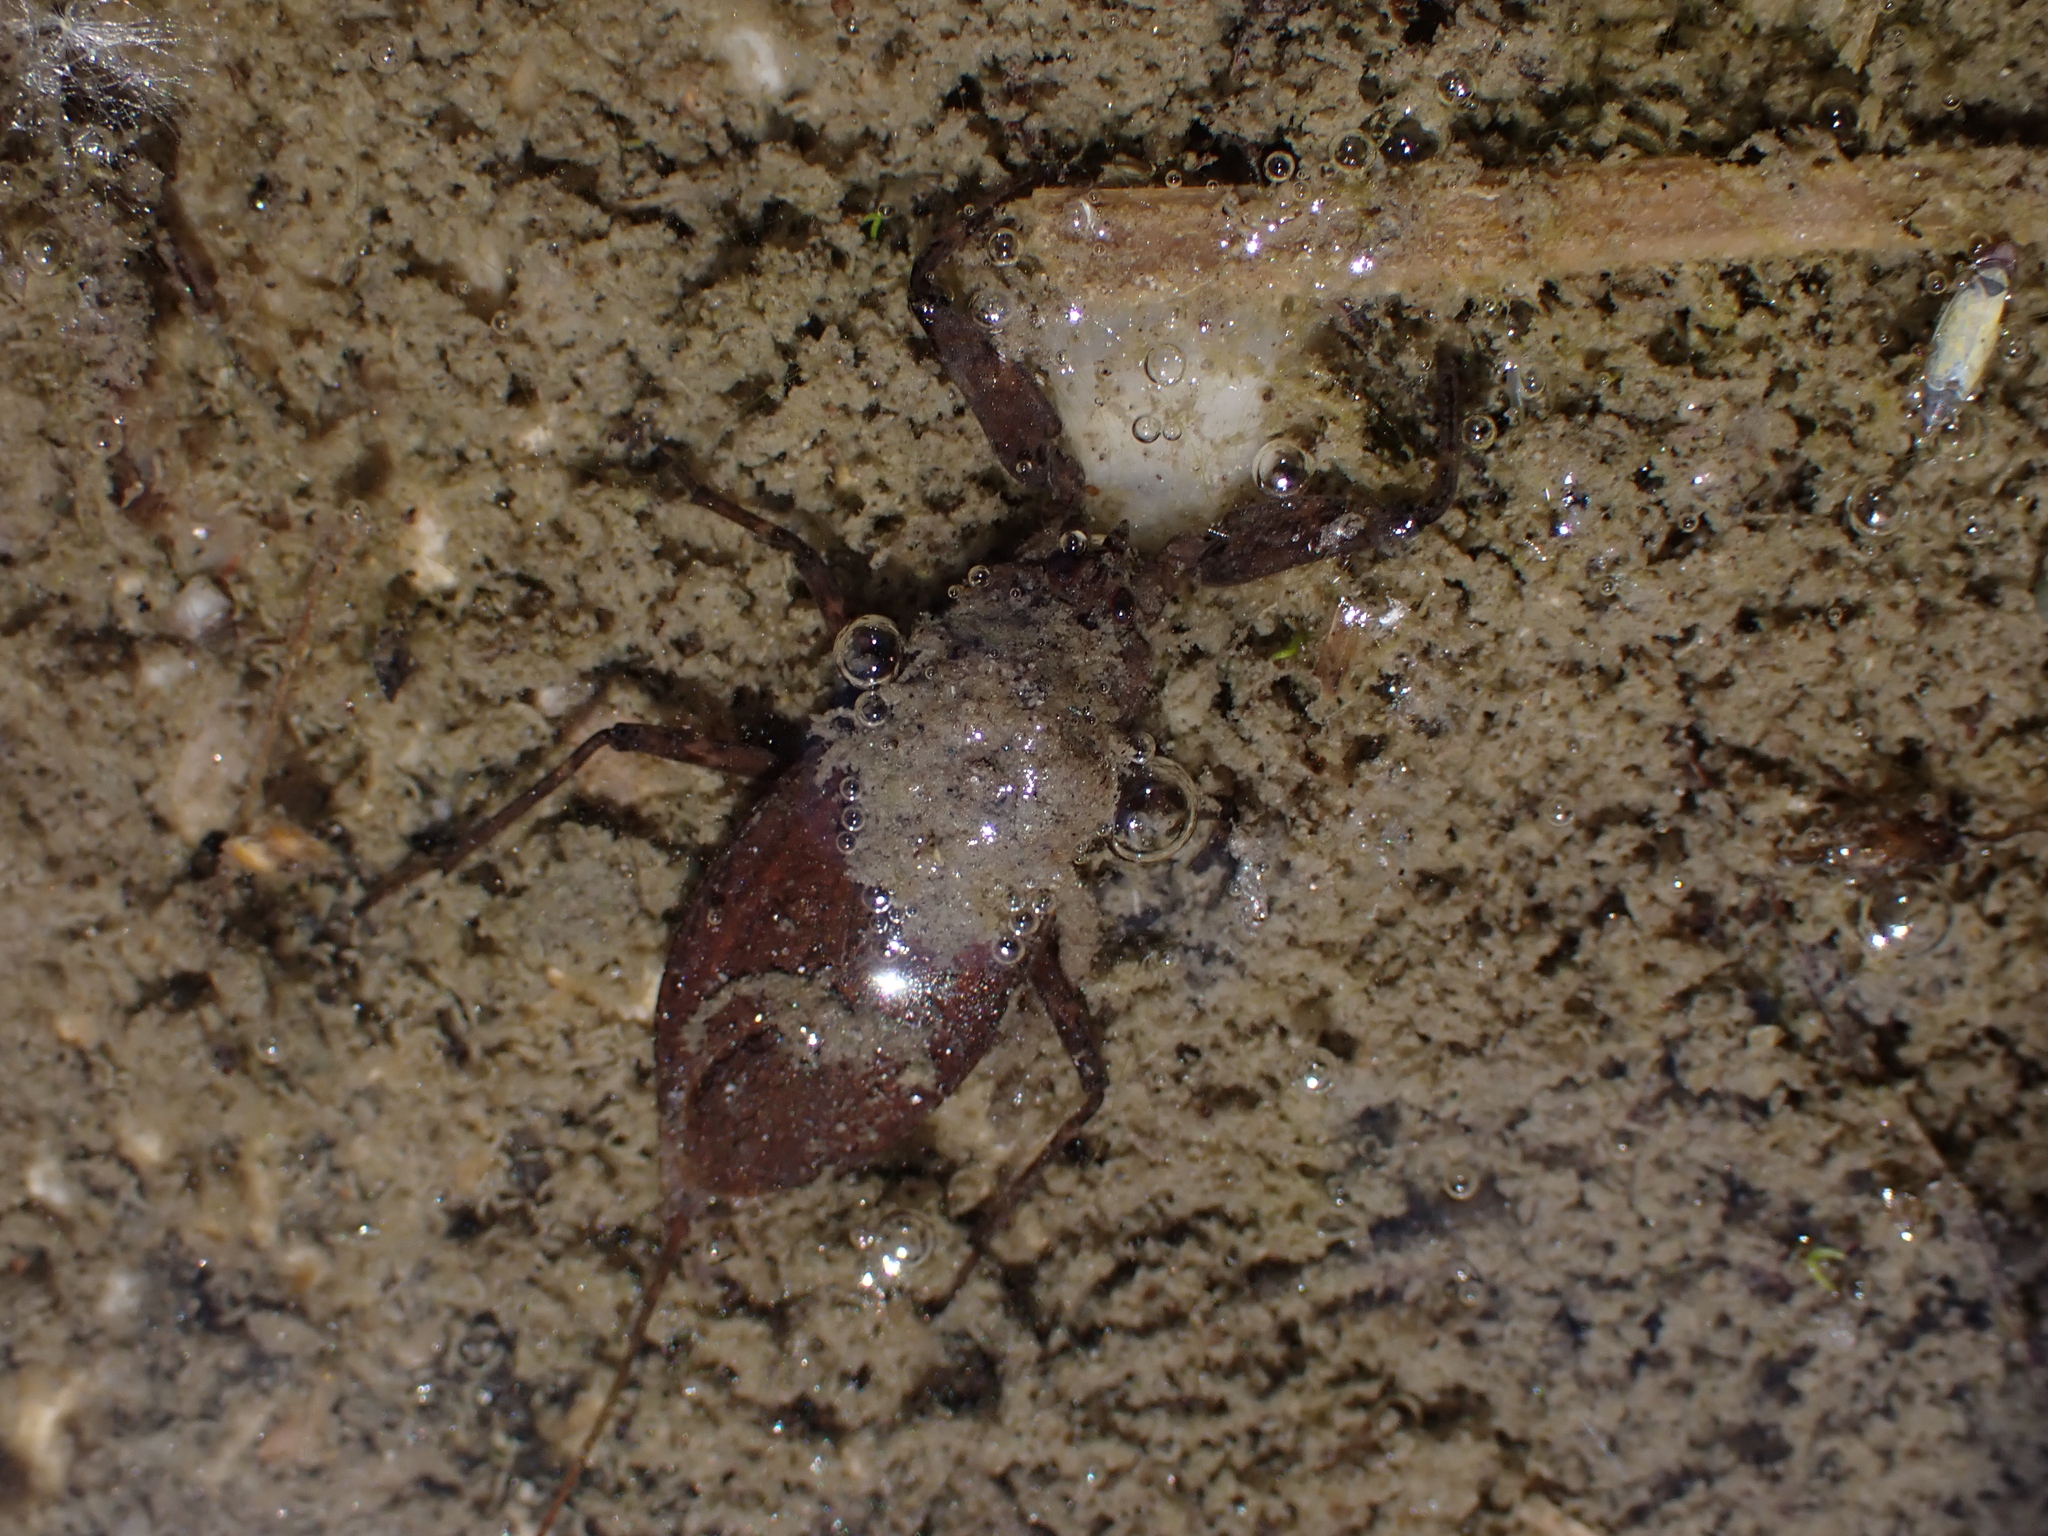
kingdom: Animalia
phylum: Arthropoda
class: Insecta
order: Hemiptera
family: Nepidae
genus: Nepa
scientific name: Nepa cinerea
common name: Water scorpion
